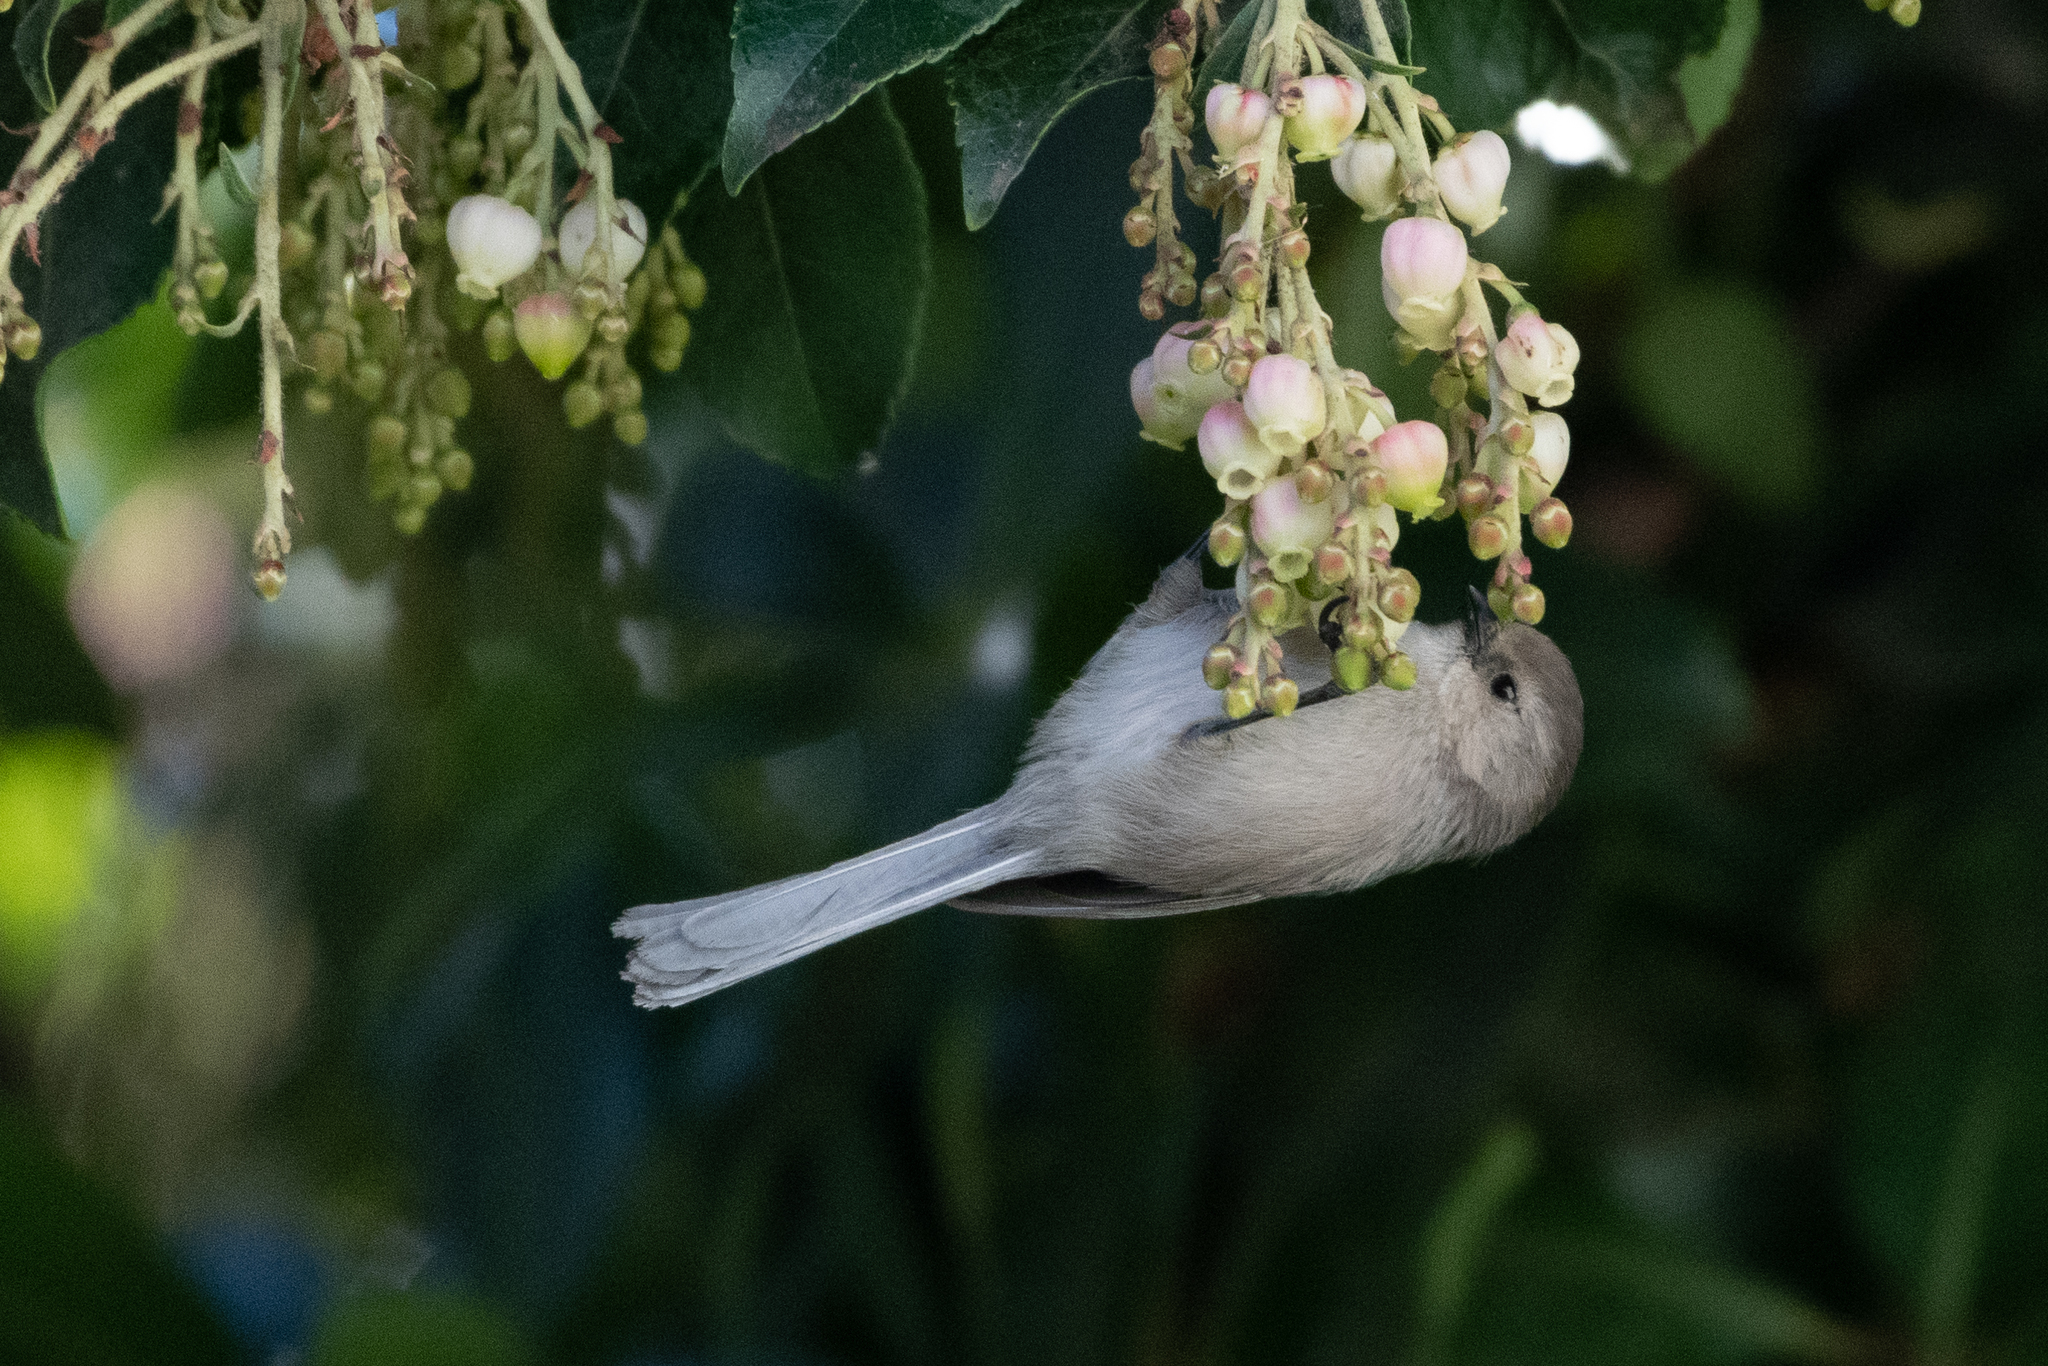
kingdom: Animalia
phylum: Chordata
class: Aves
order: Passeriformes
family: Aegithalidae
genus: Psaltriparus
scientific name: Psaltriparus minimus
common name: American bushtit
